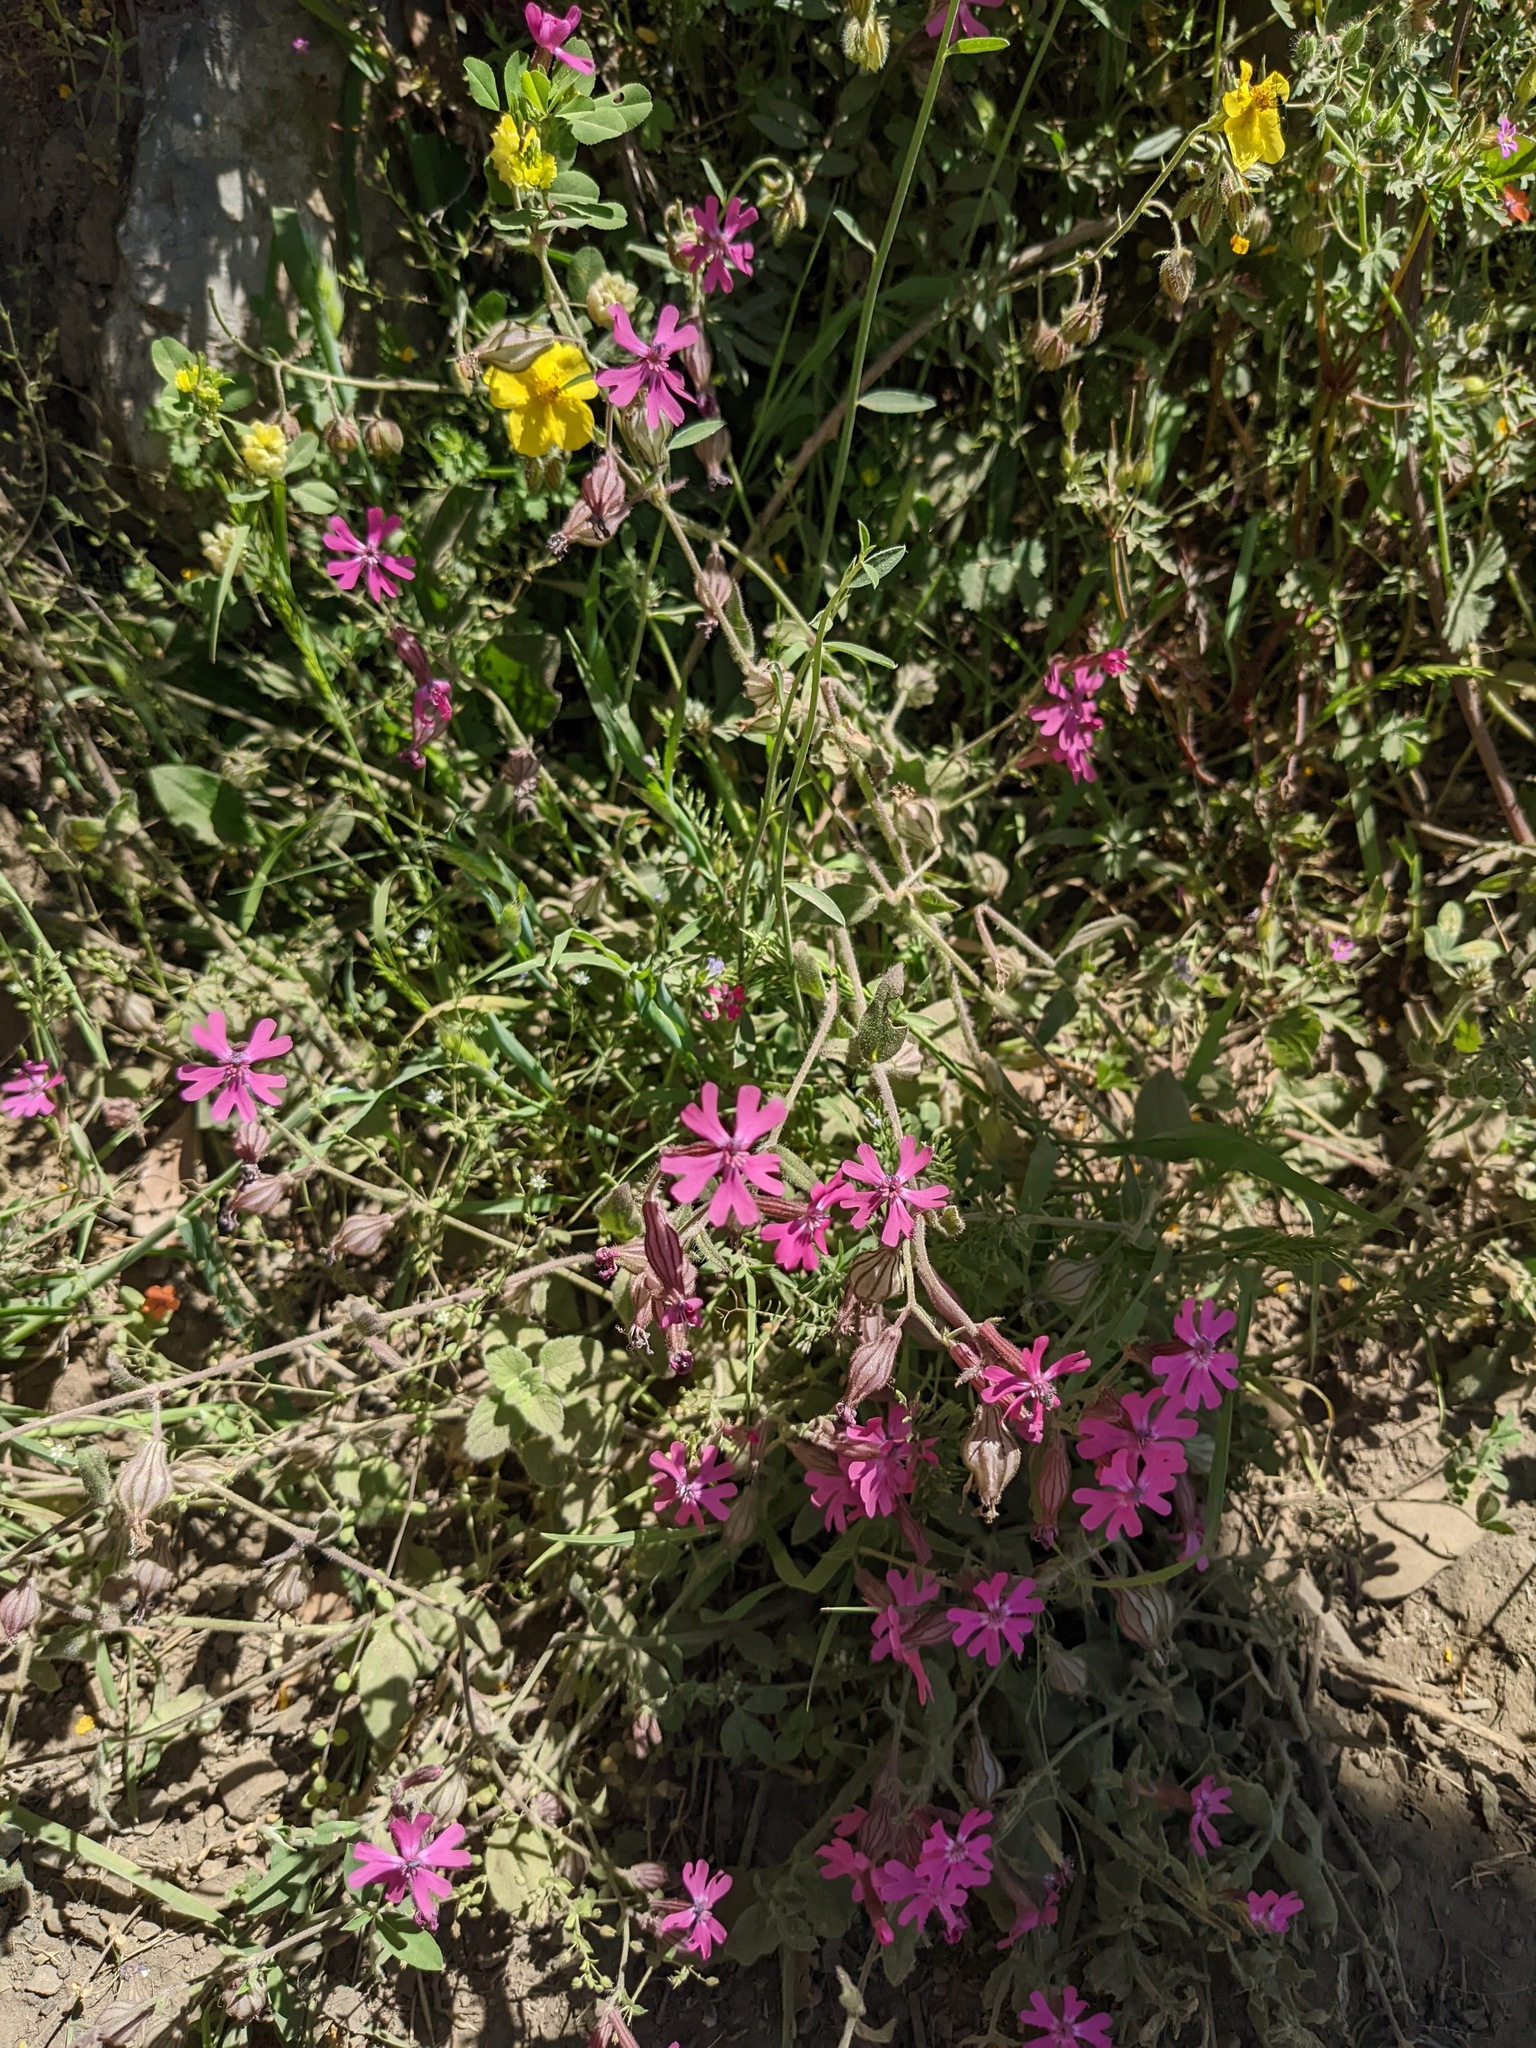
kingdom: Plantae
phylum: Tracheophyta
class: Magnoliopsida
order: Caryophyllales
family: Caryophyllaceae
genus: Silene
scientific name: Silene colorata
